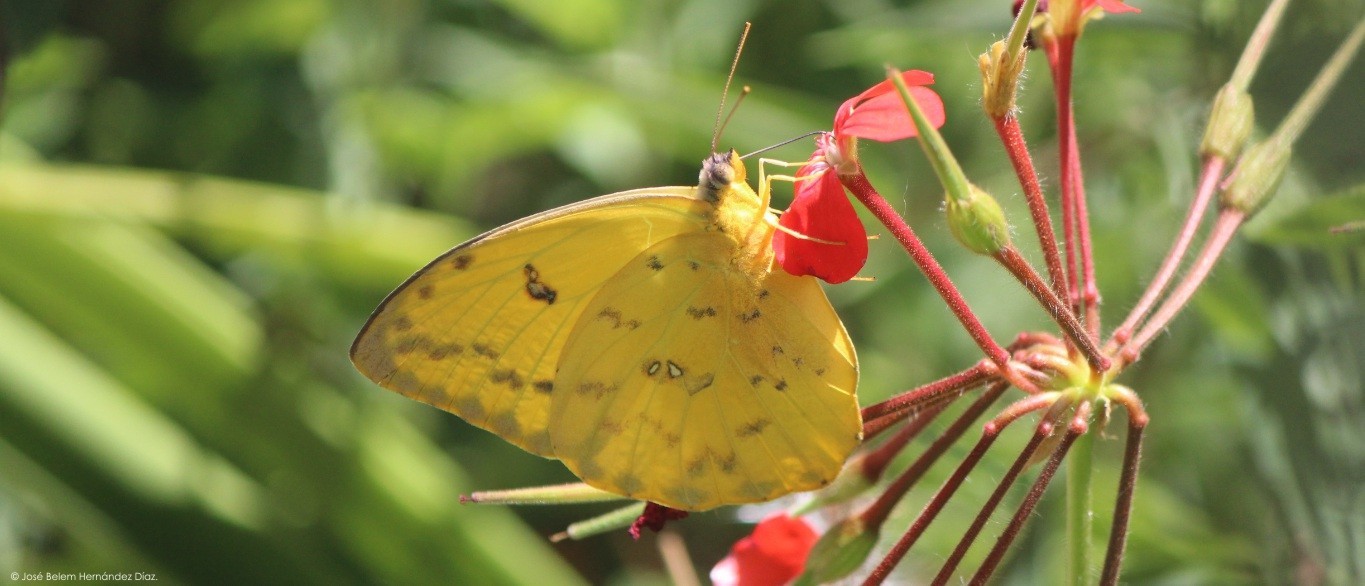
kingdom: Animalia
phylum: Arthropoda
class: Insecta
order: Lepidoptera
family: Pieridae
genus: Phoebis
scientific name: Phoebis philea
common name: Orange-barred giant sulphur
